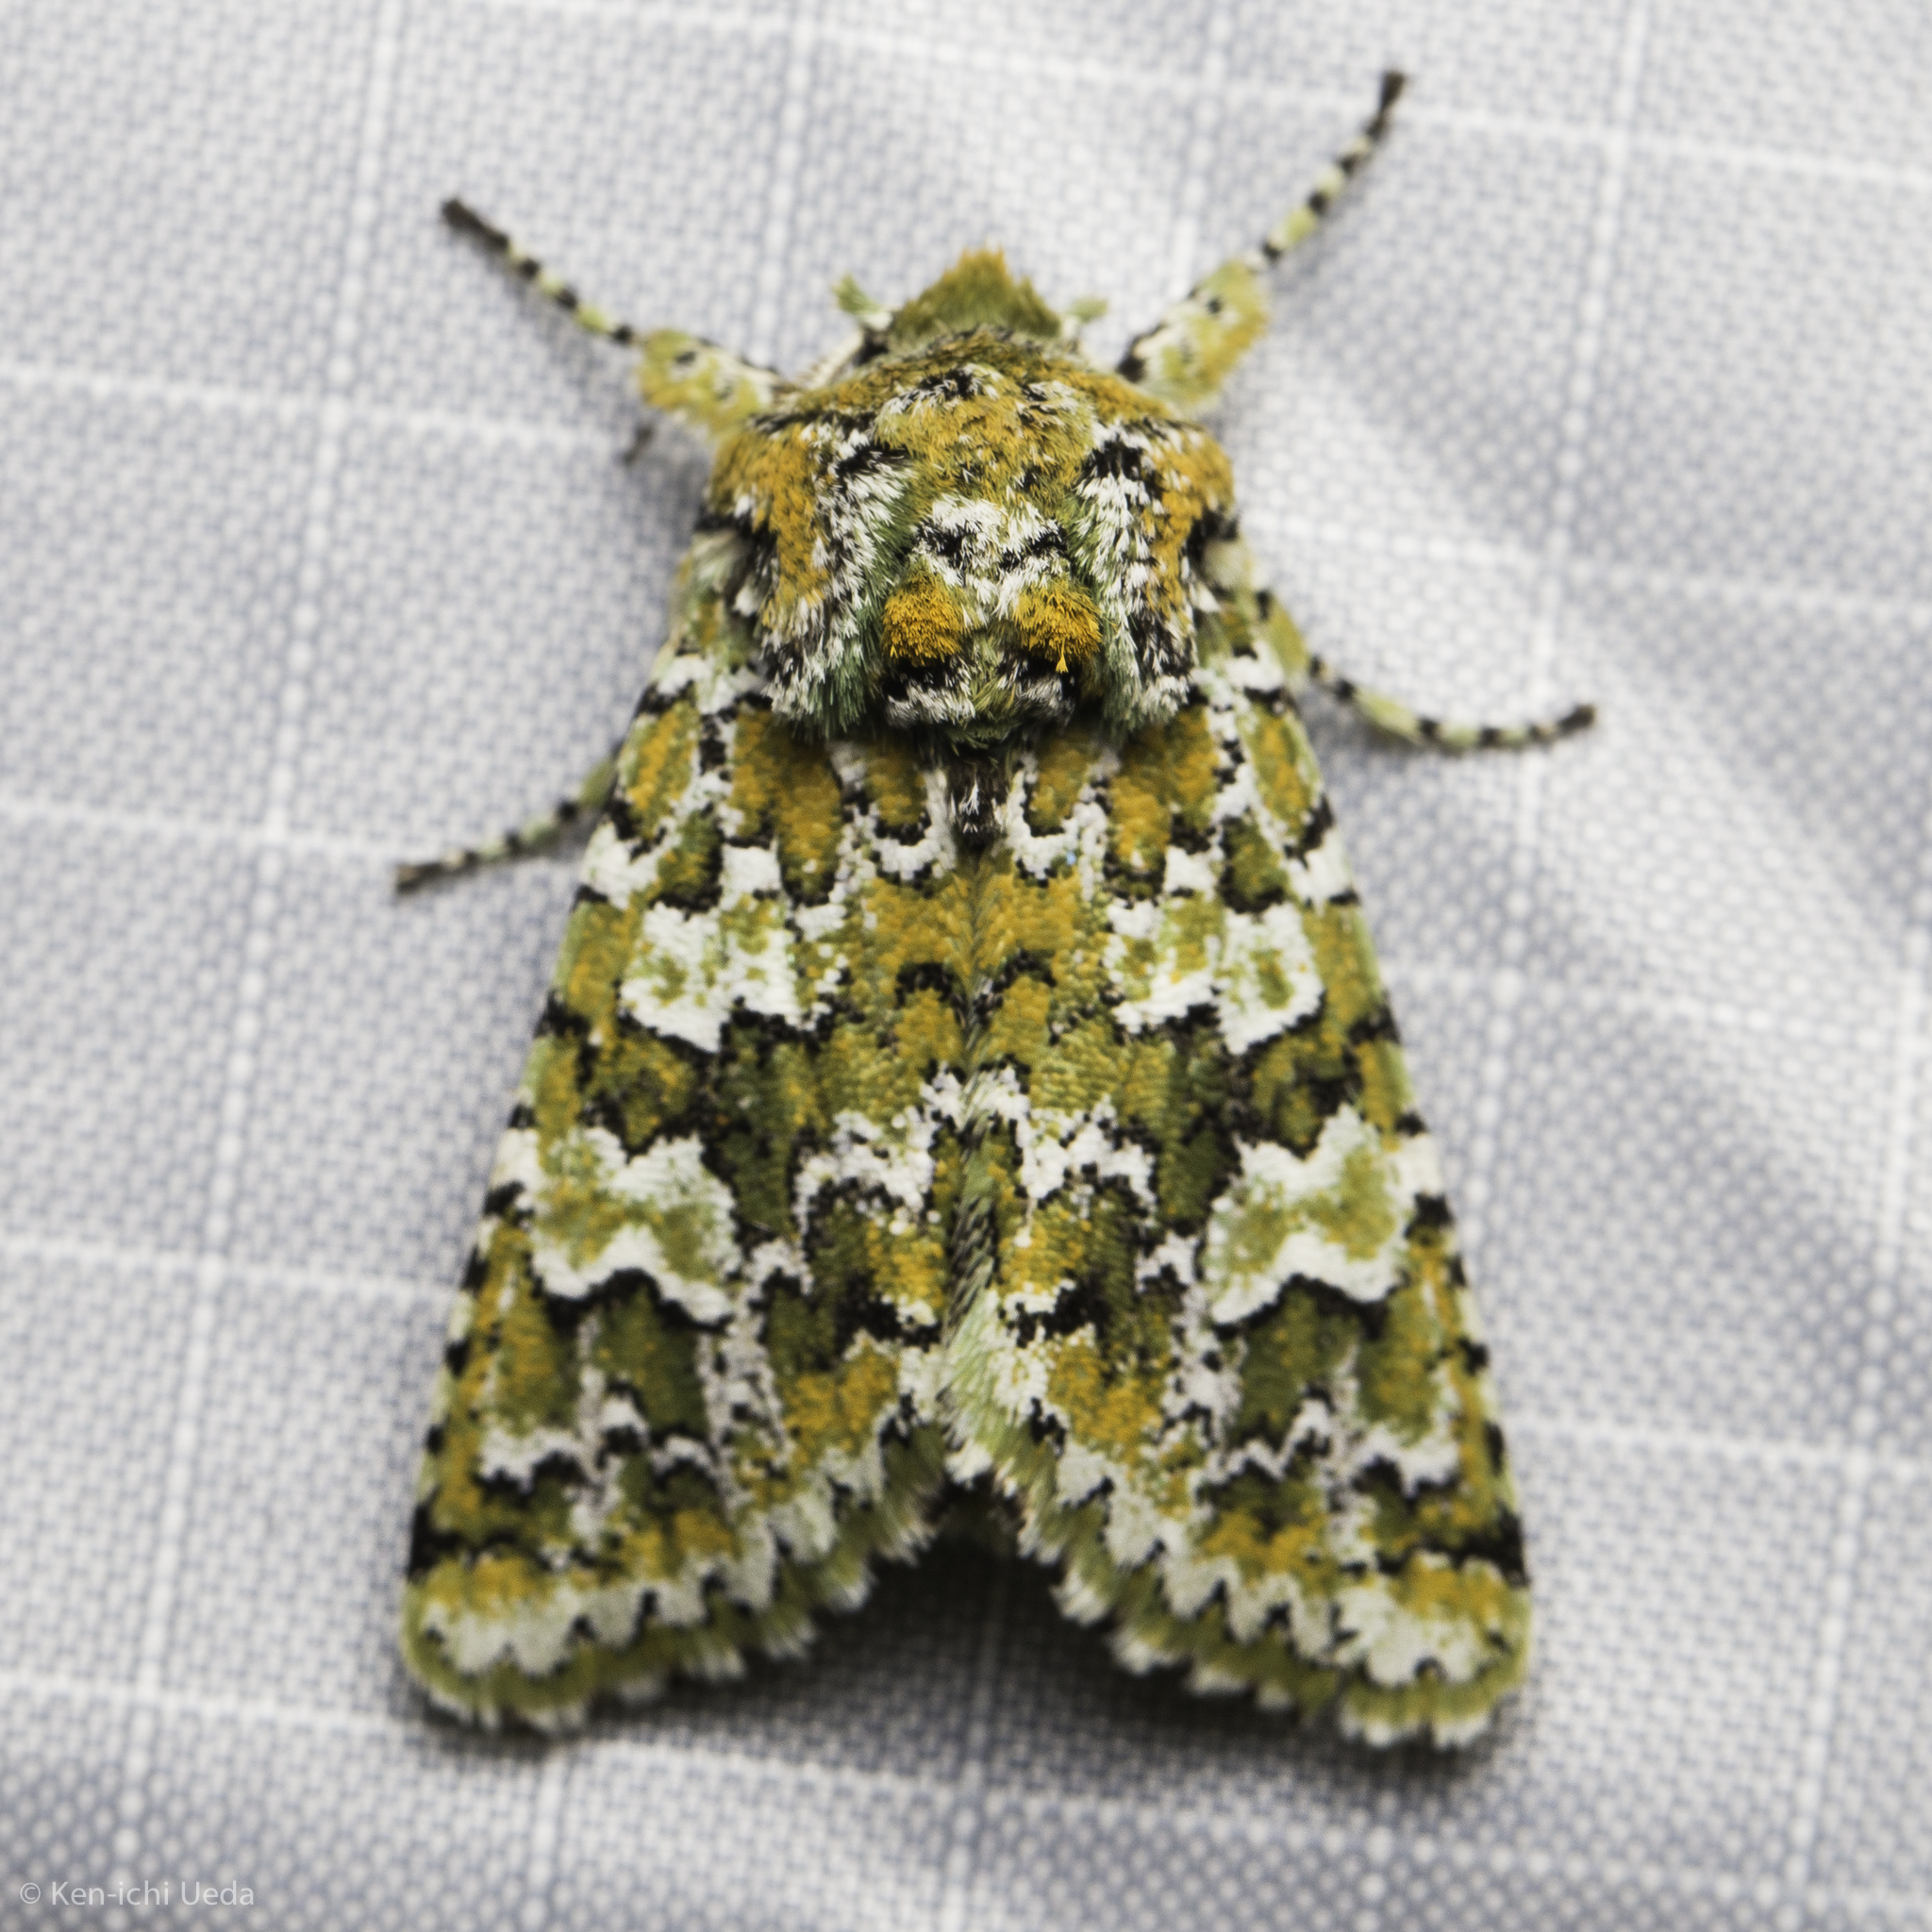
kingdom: Animalia
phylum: Arthropoda
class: Insecta
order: Lepidoptera
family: Noctuidae
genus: Feralia
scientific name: Feralia februalis
